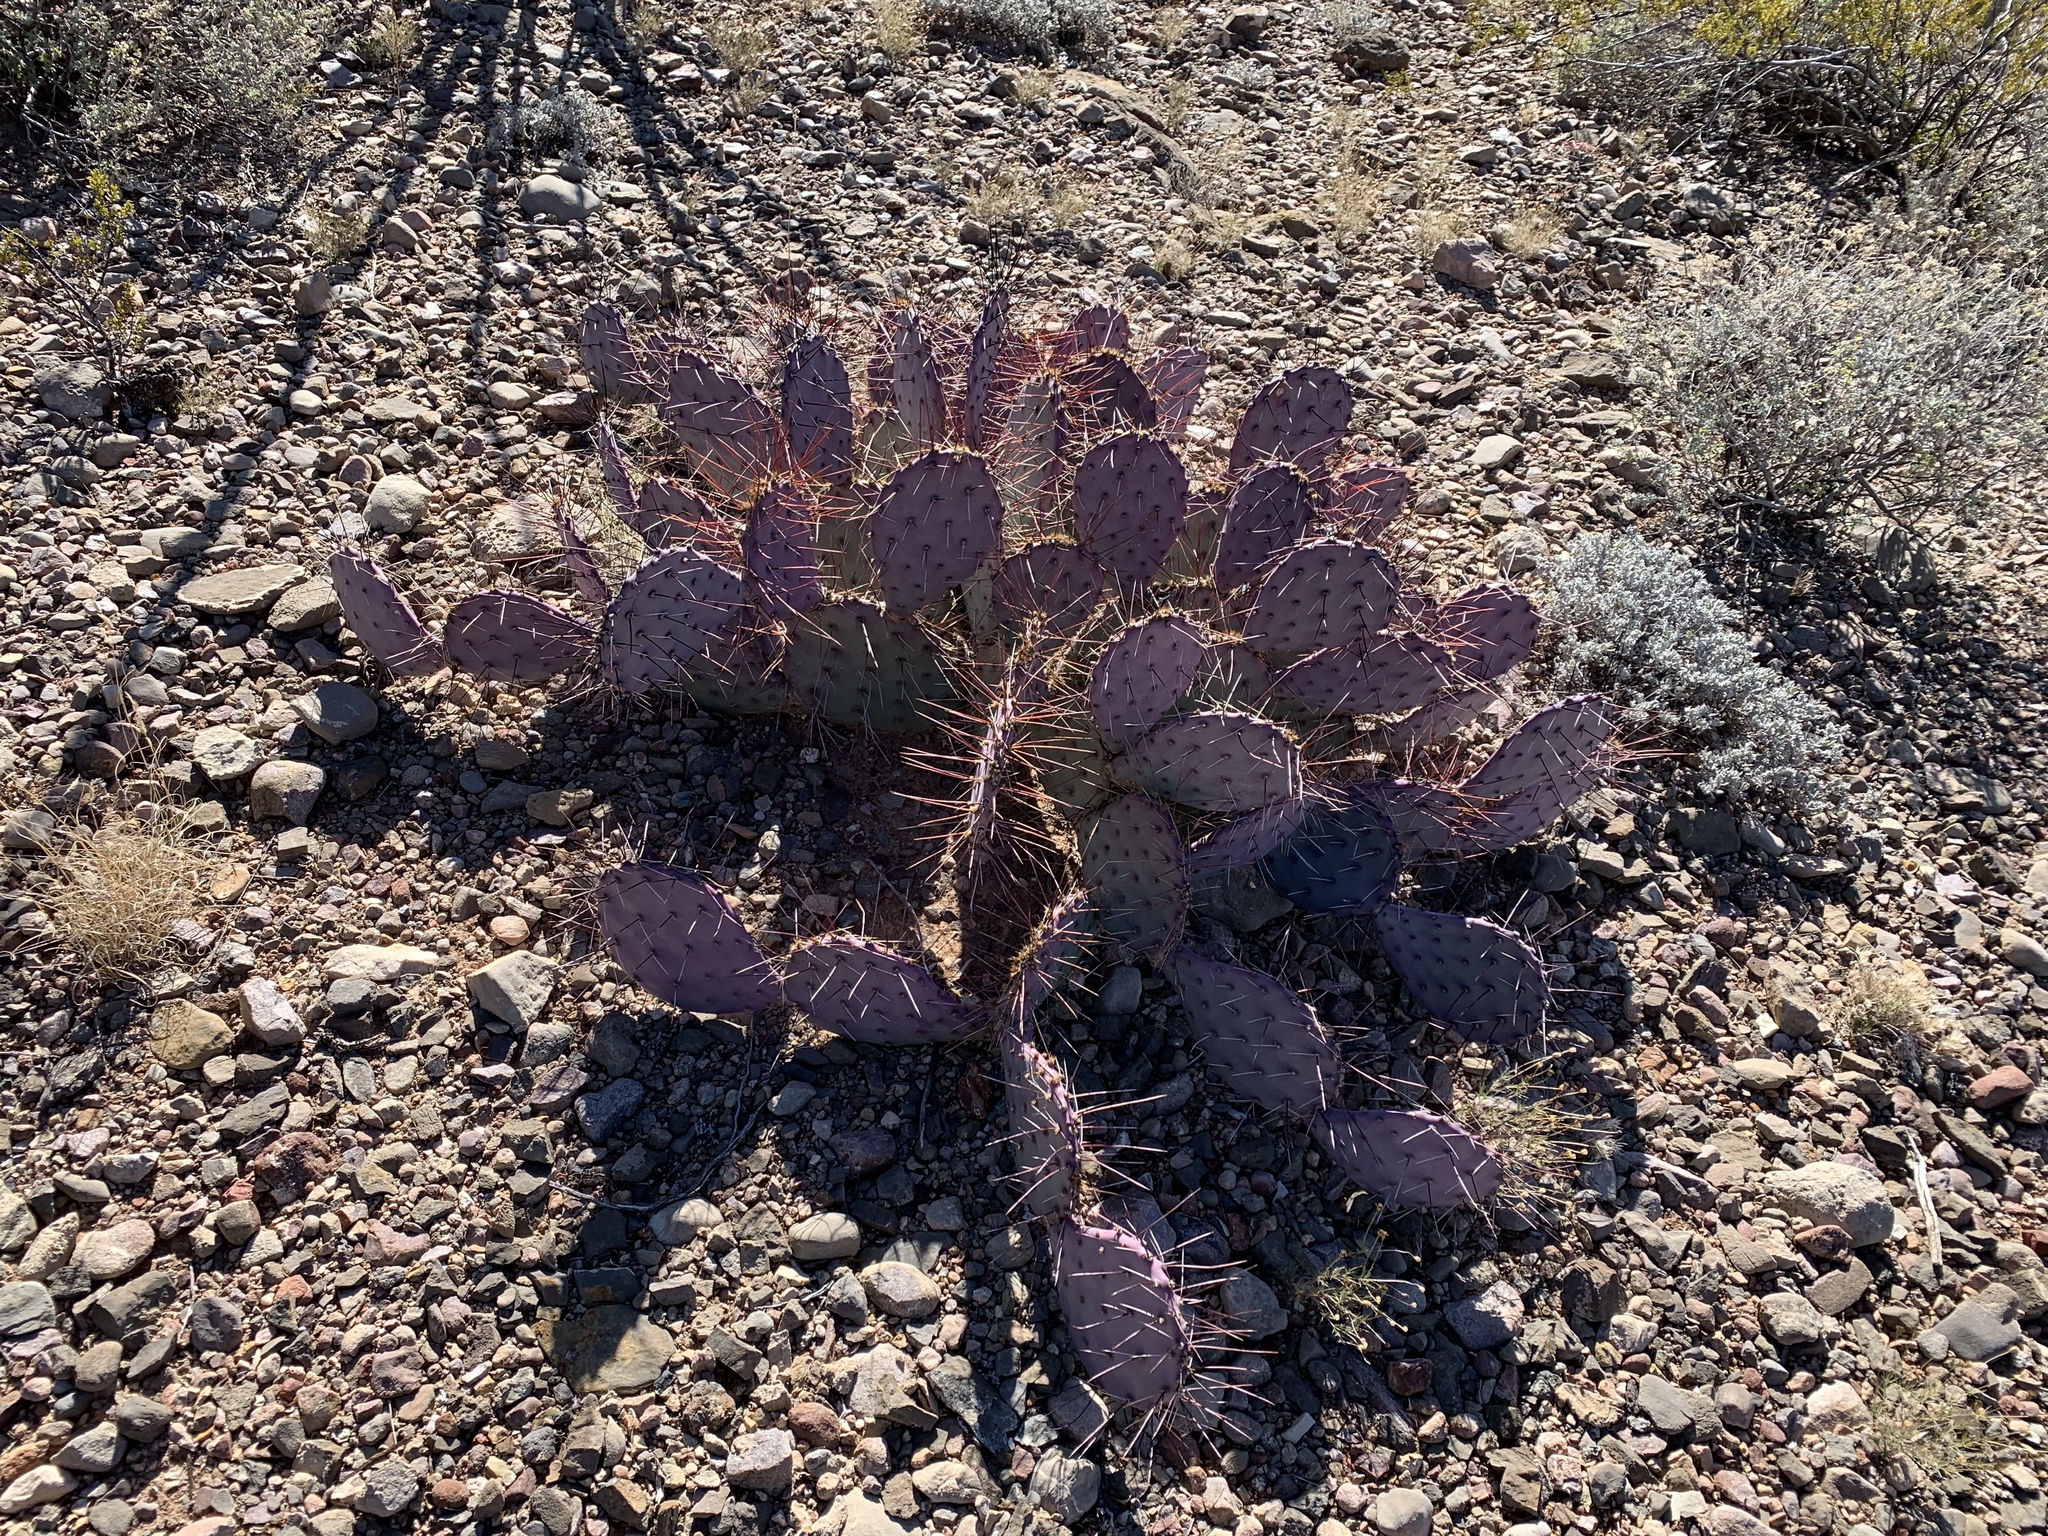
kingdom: Plantae
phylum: Tracheophyta
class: Magnoliopsida
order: Caryophyllales
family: Cactaceae
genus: Opuntia
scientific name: Opuntia macrocentra
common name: Purple prickly-pear
